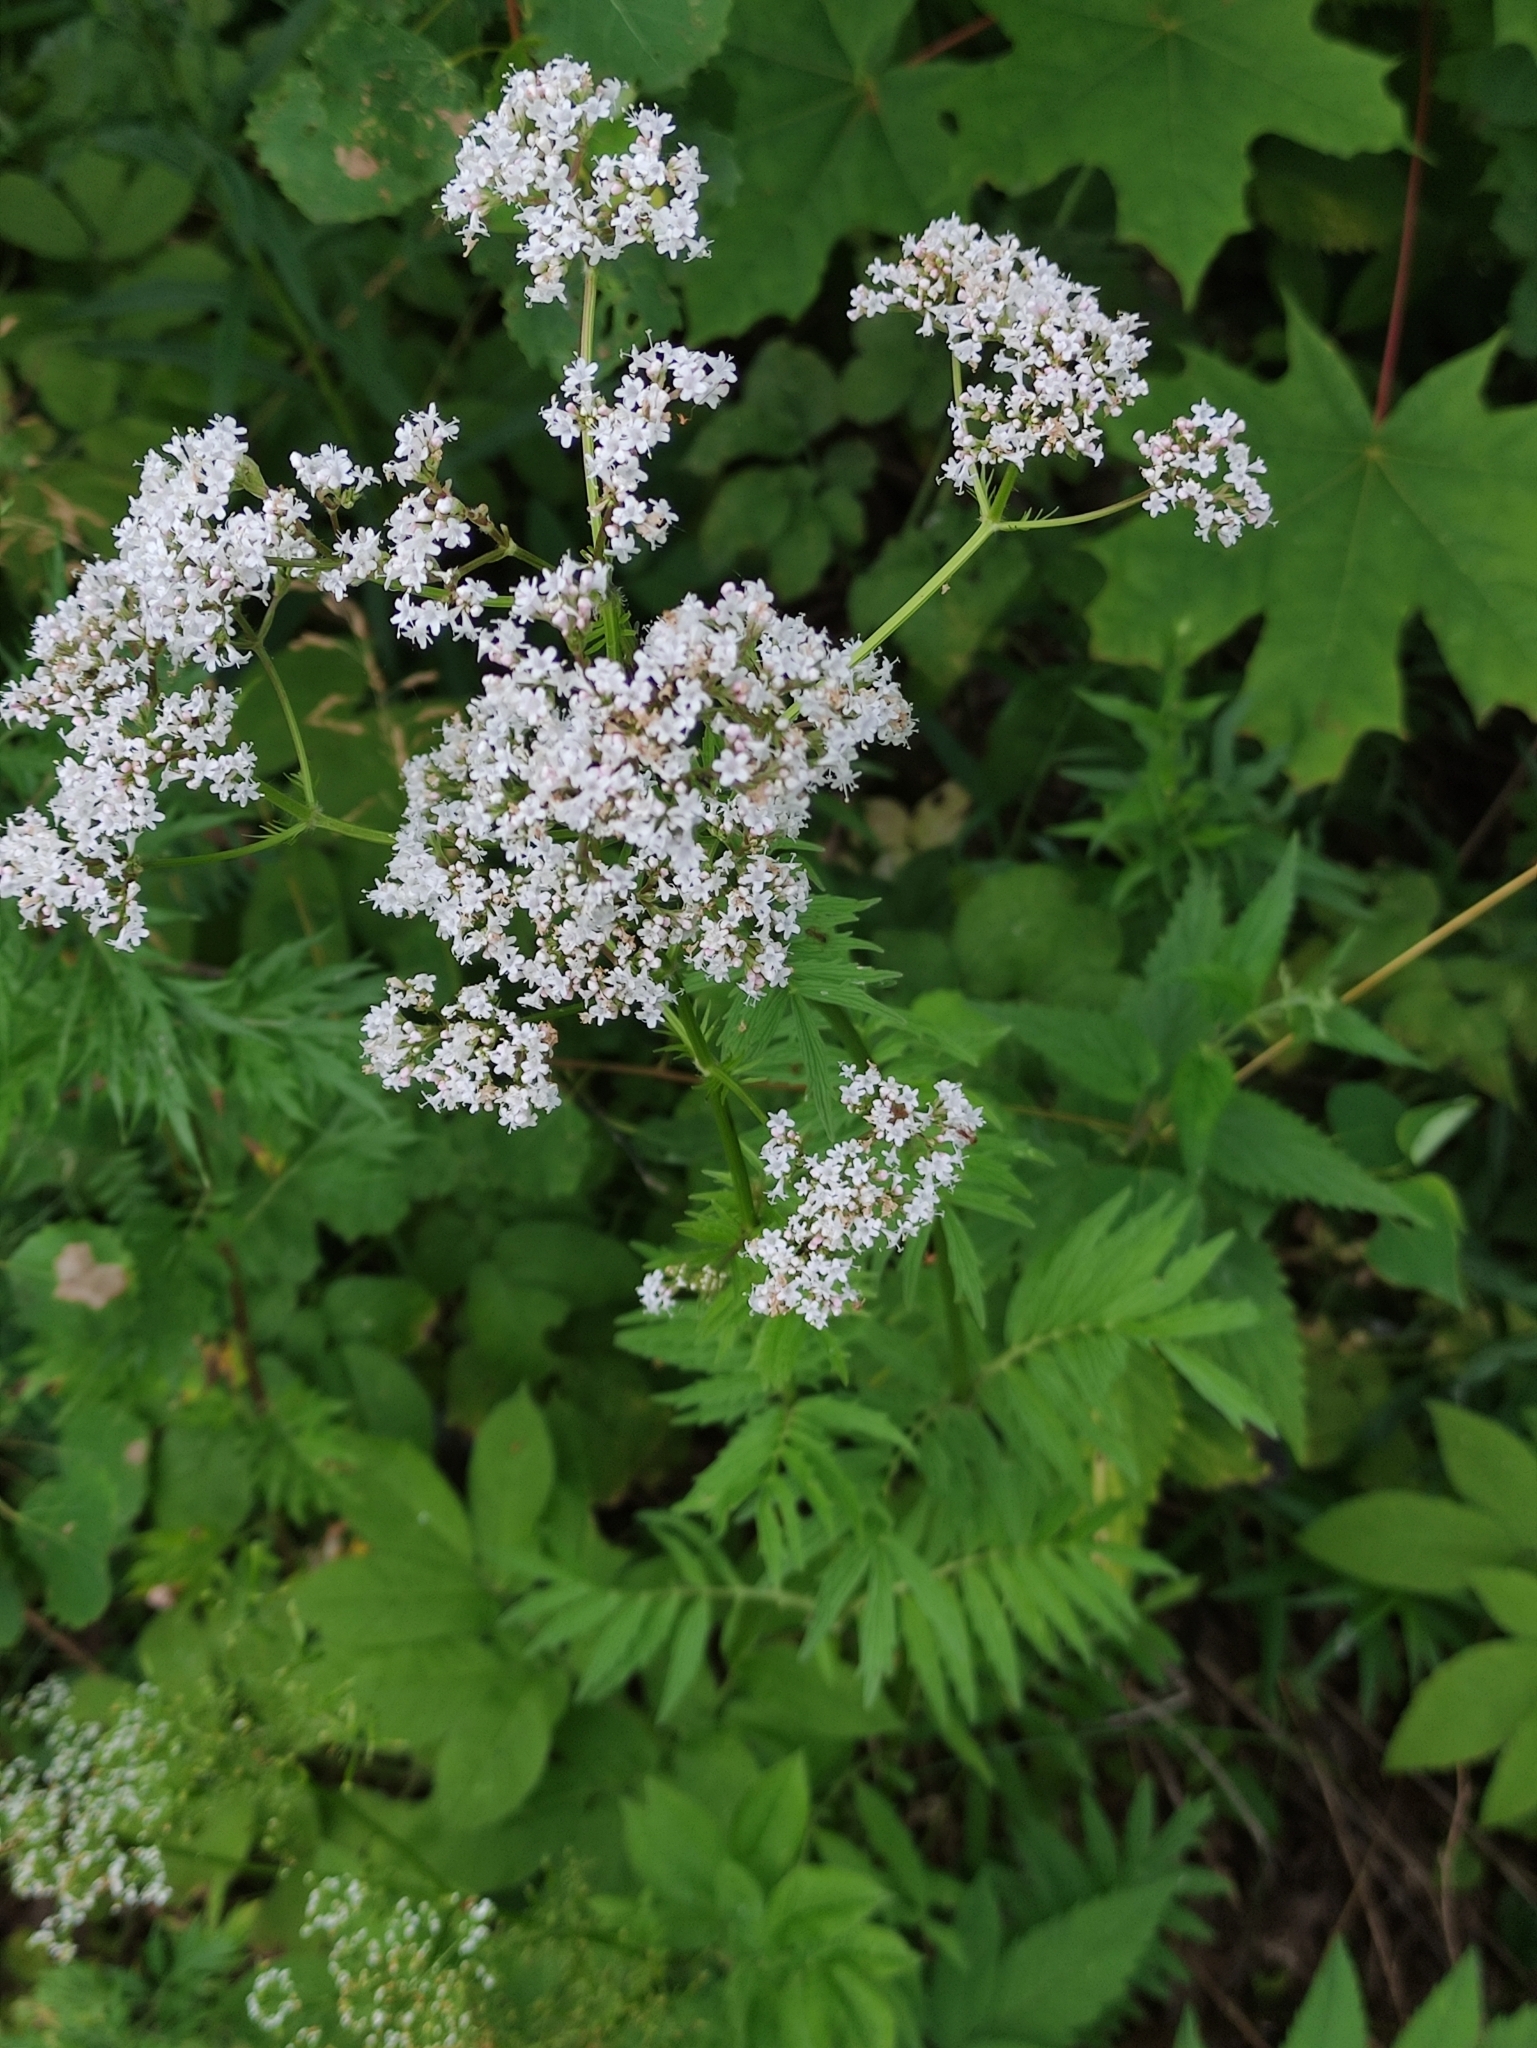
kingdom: Plantae
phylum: Tracheophyta
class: Magnoliopsida
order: Dipsacales
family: Caprifoliaceae
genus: Valeriana
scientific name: Valeriana officinalis
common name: Common valerian
